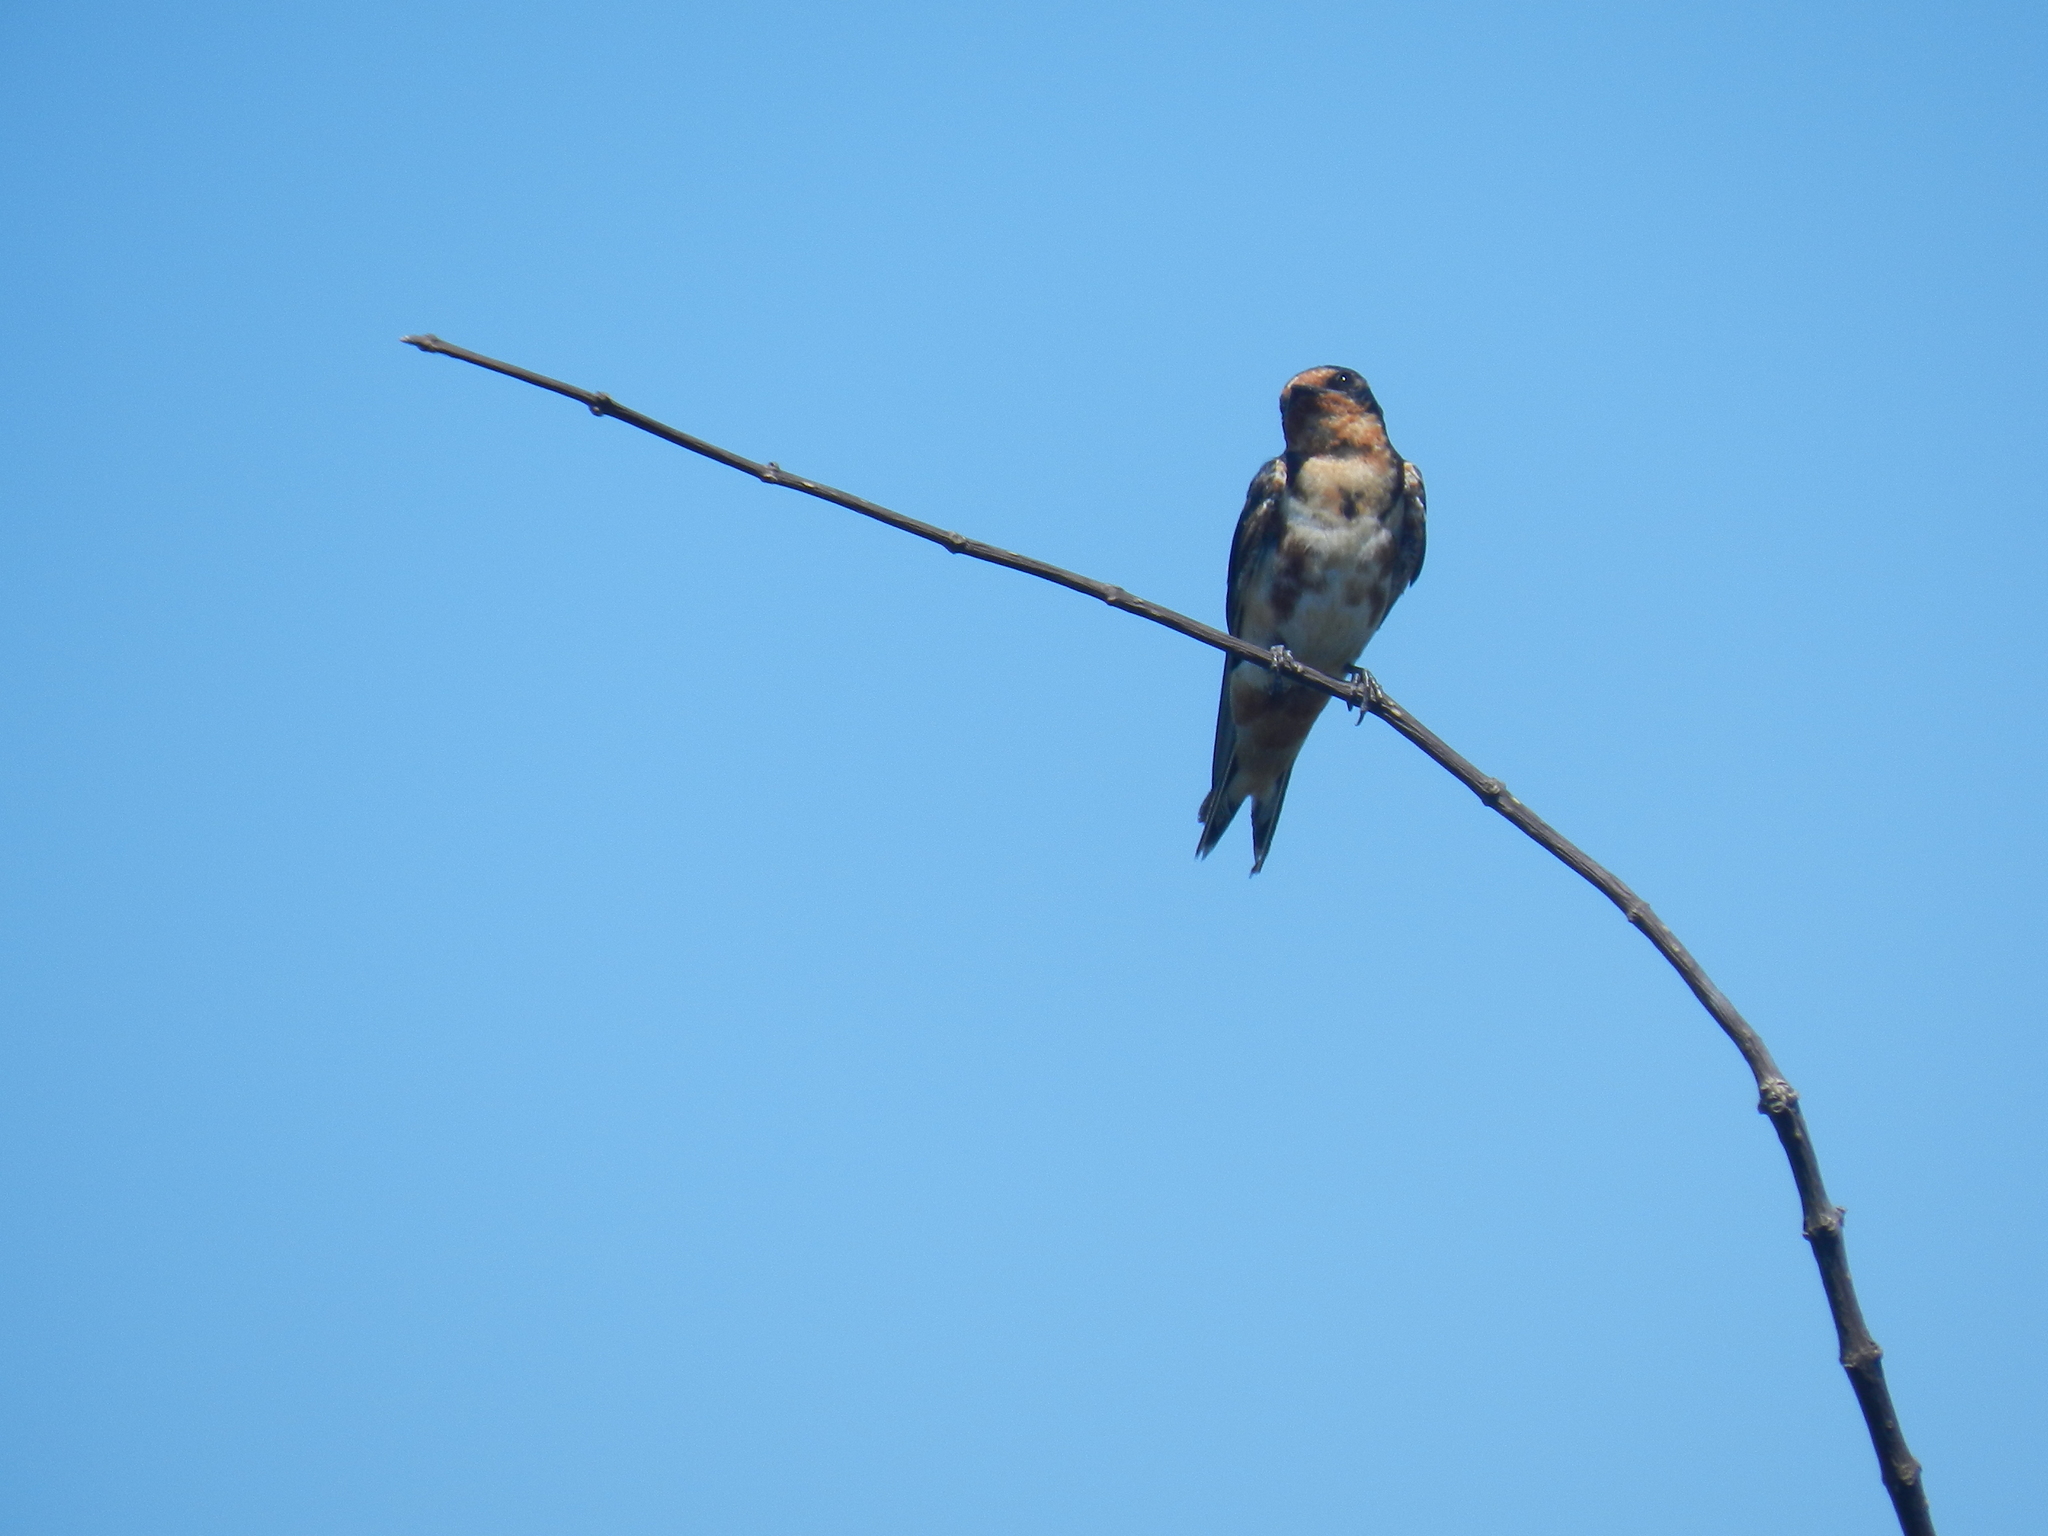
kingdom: Animalia
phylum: Chordata
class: Aves
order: Passeriformes
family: Hirundinidae
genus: Hirundo
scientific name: Hirundo rustica
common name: Barn swallow
